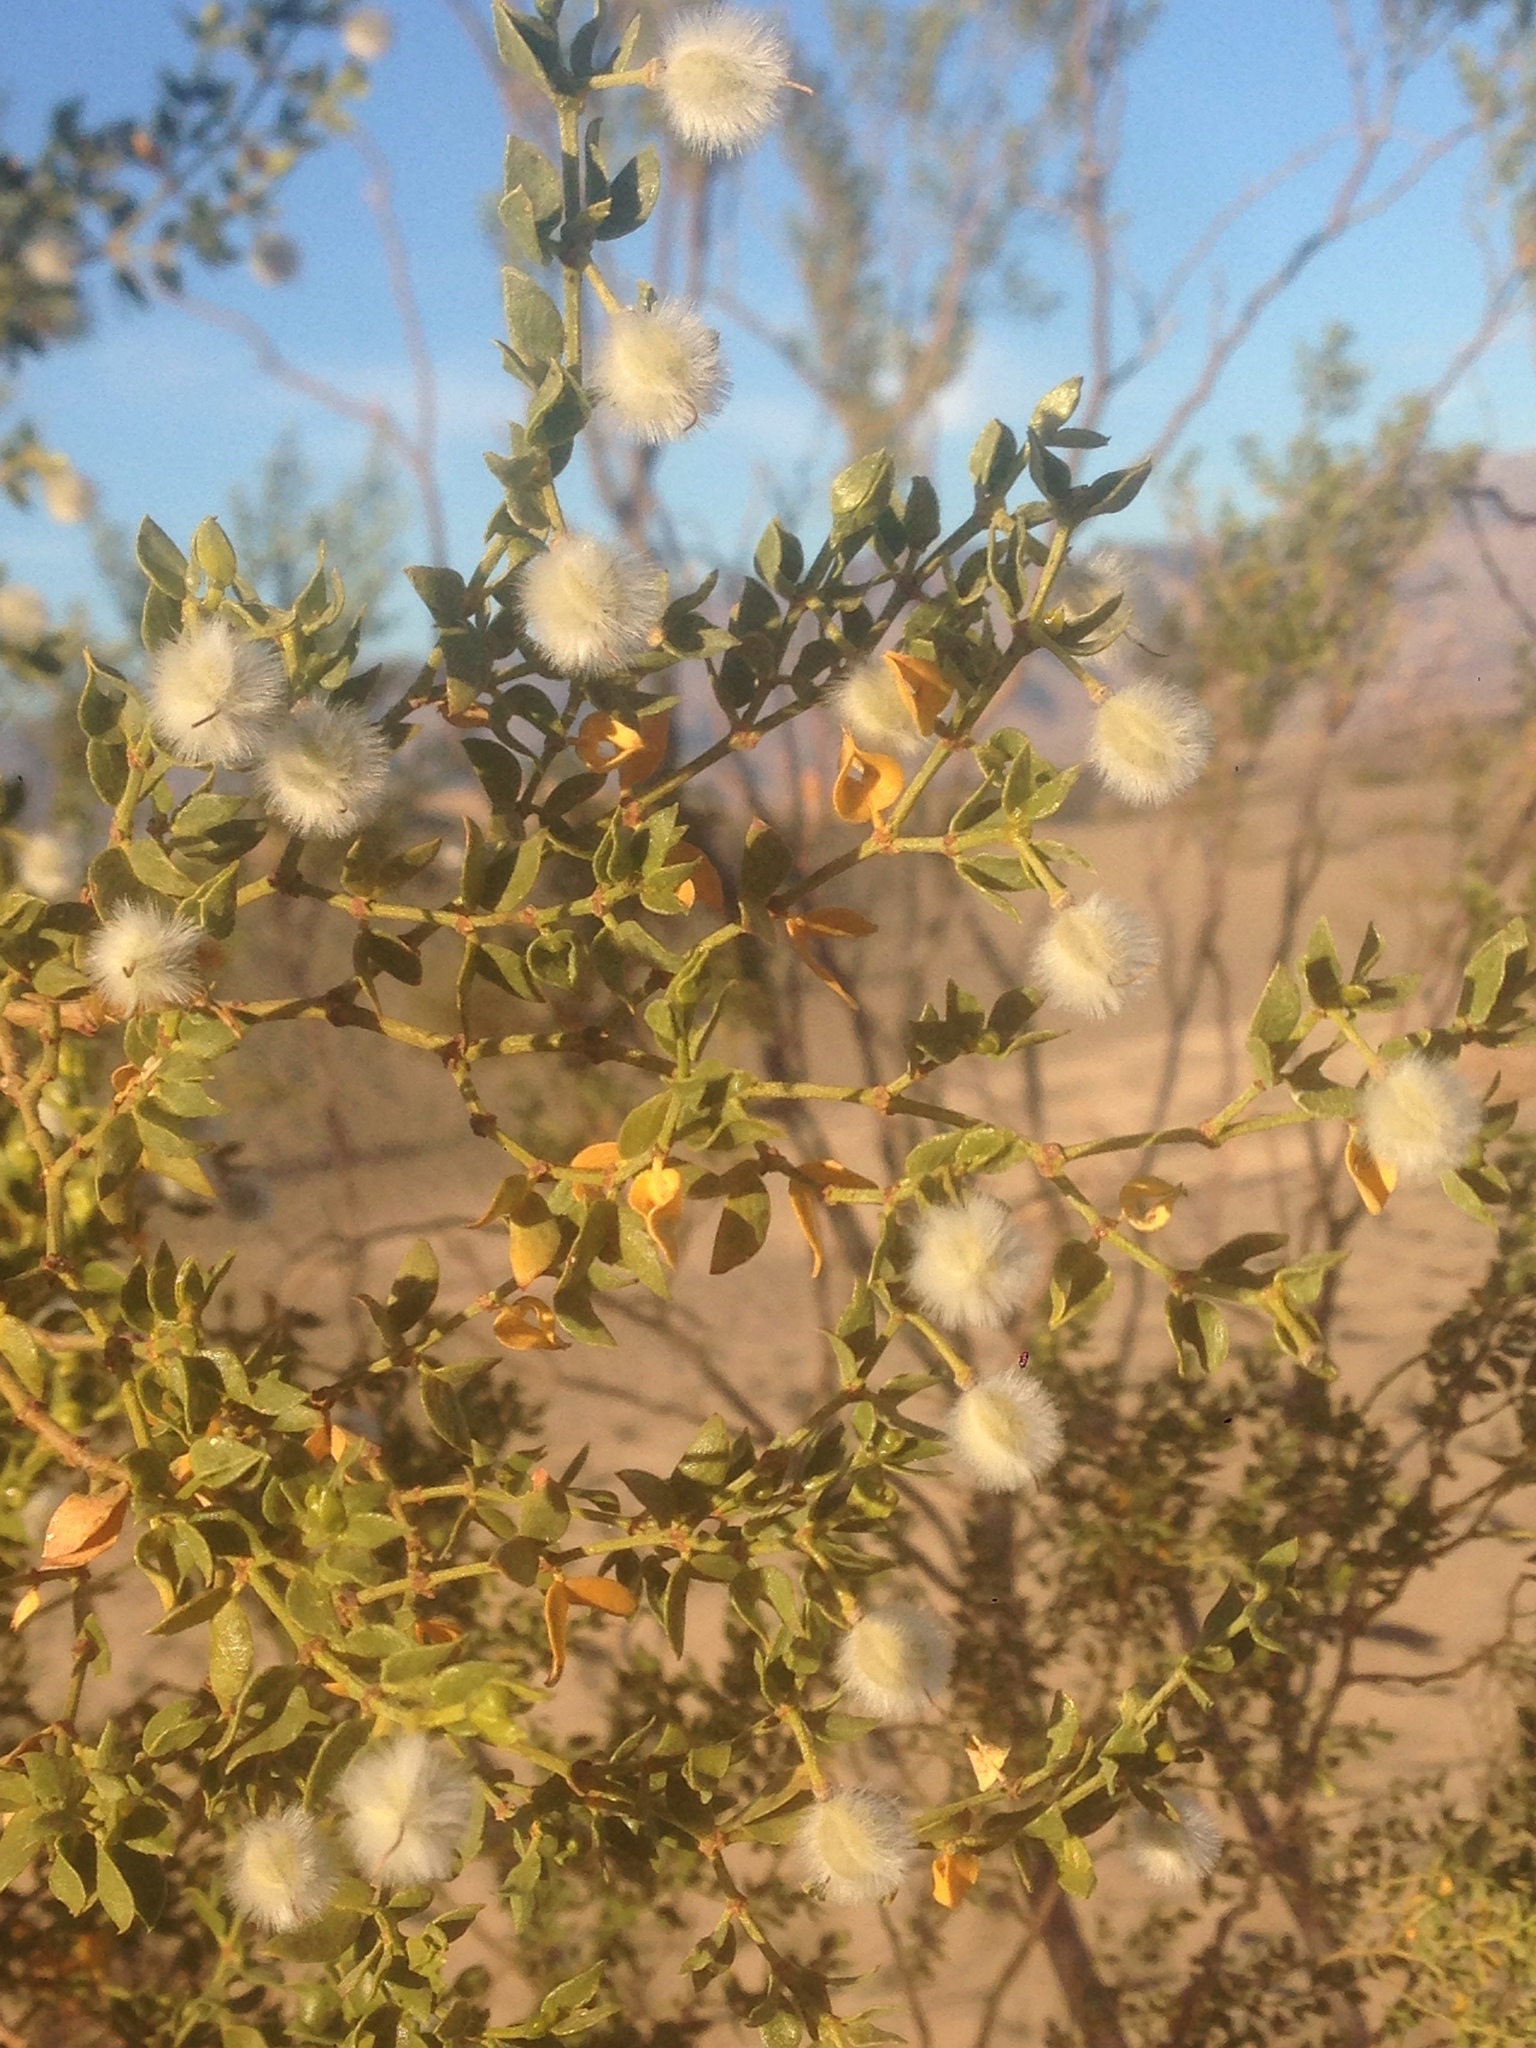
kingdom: Plantae
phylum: Tracheophyta
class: Magnoliopsida
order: Zygophyllales
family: Zygophyllaceae
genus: Larrea
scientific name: Larrea tridentata
